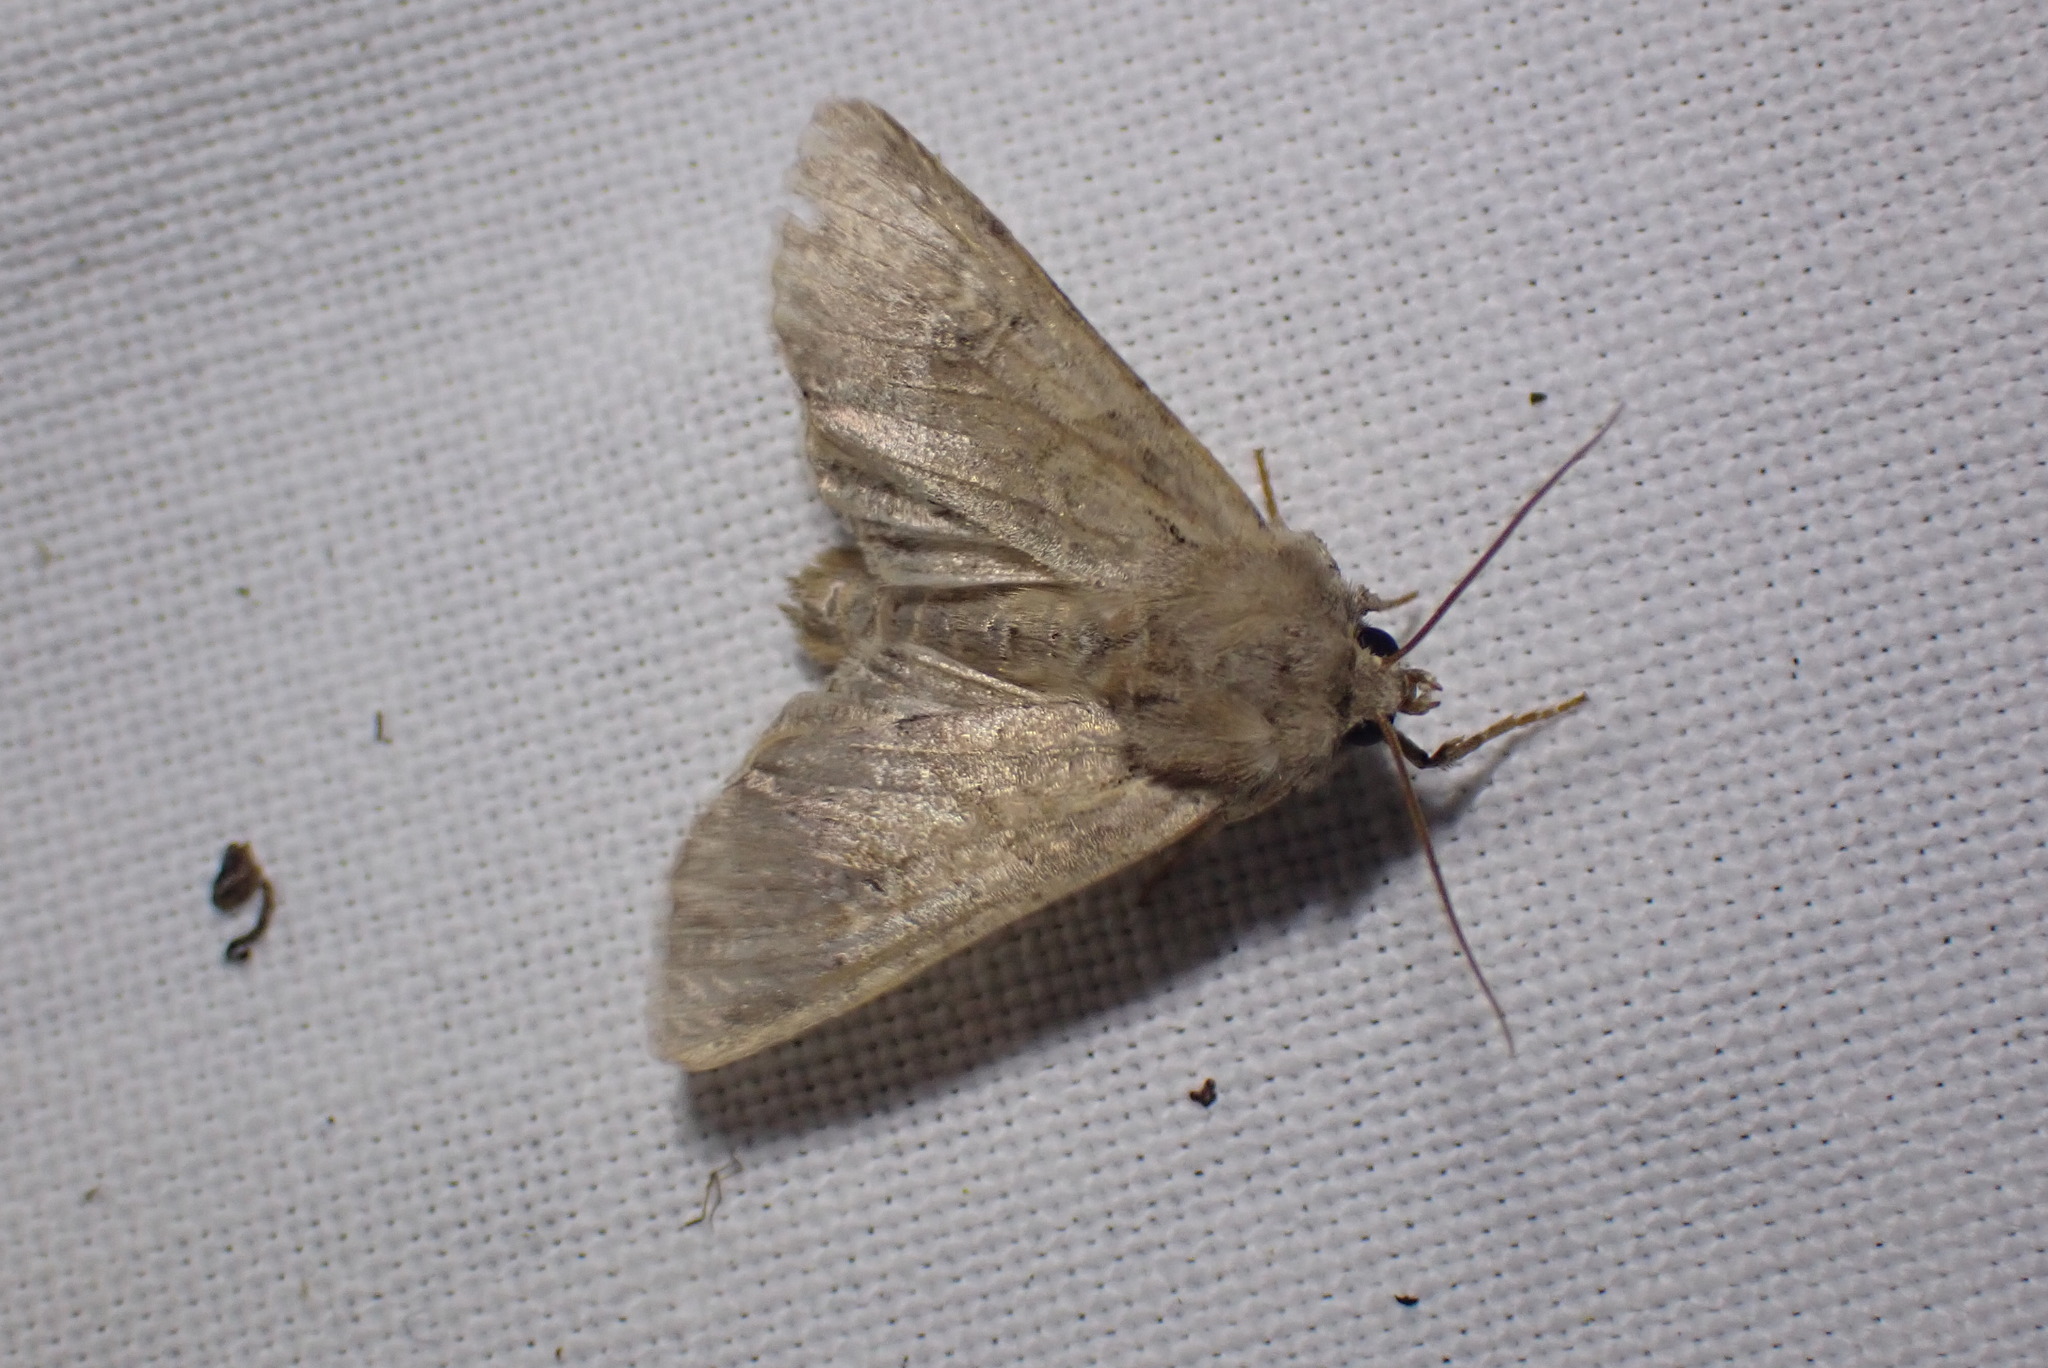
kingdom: Animalia
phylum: Arthropoda
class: Insecta
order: Lepidoptera
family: Noctuidae
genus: Apamea
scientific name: Apamea sordens
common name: Rustic shoulder-knot
